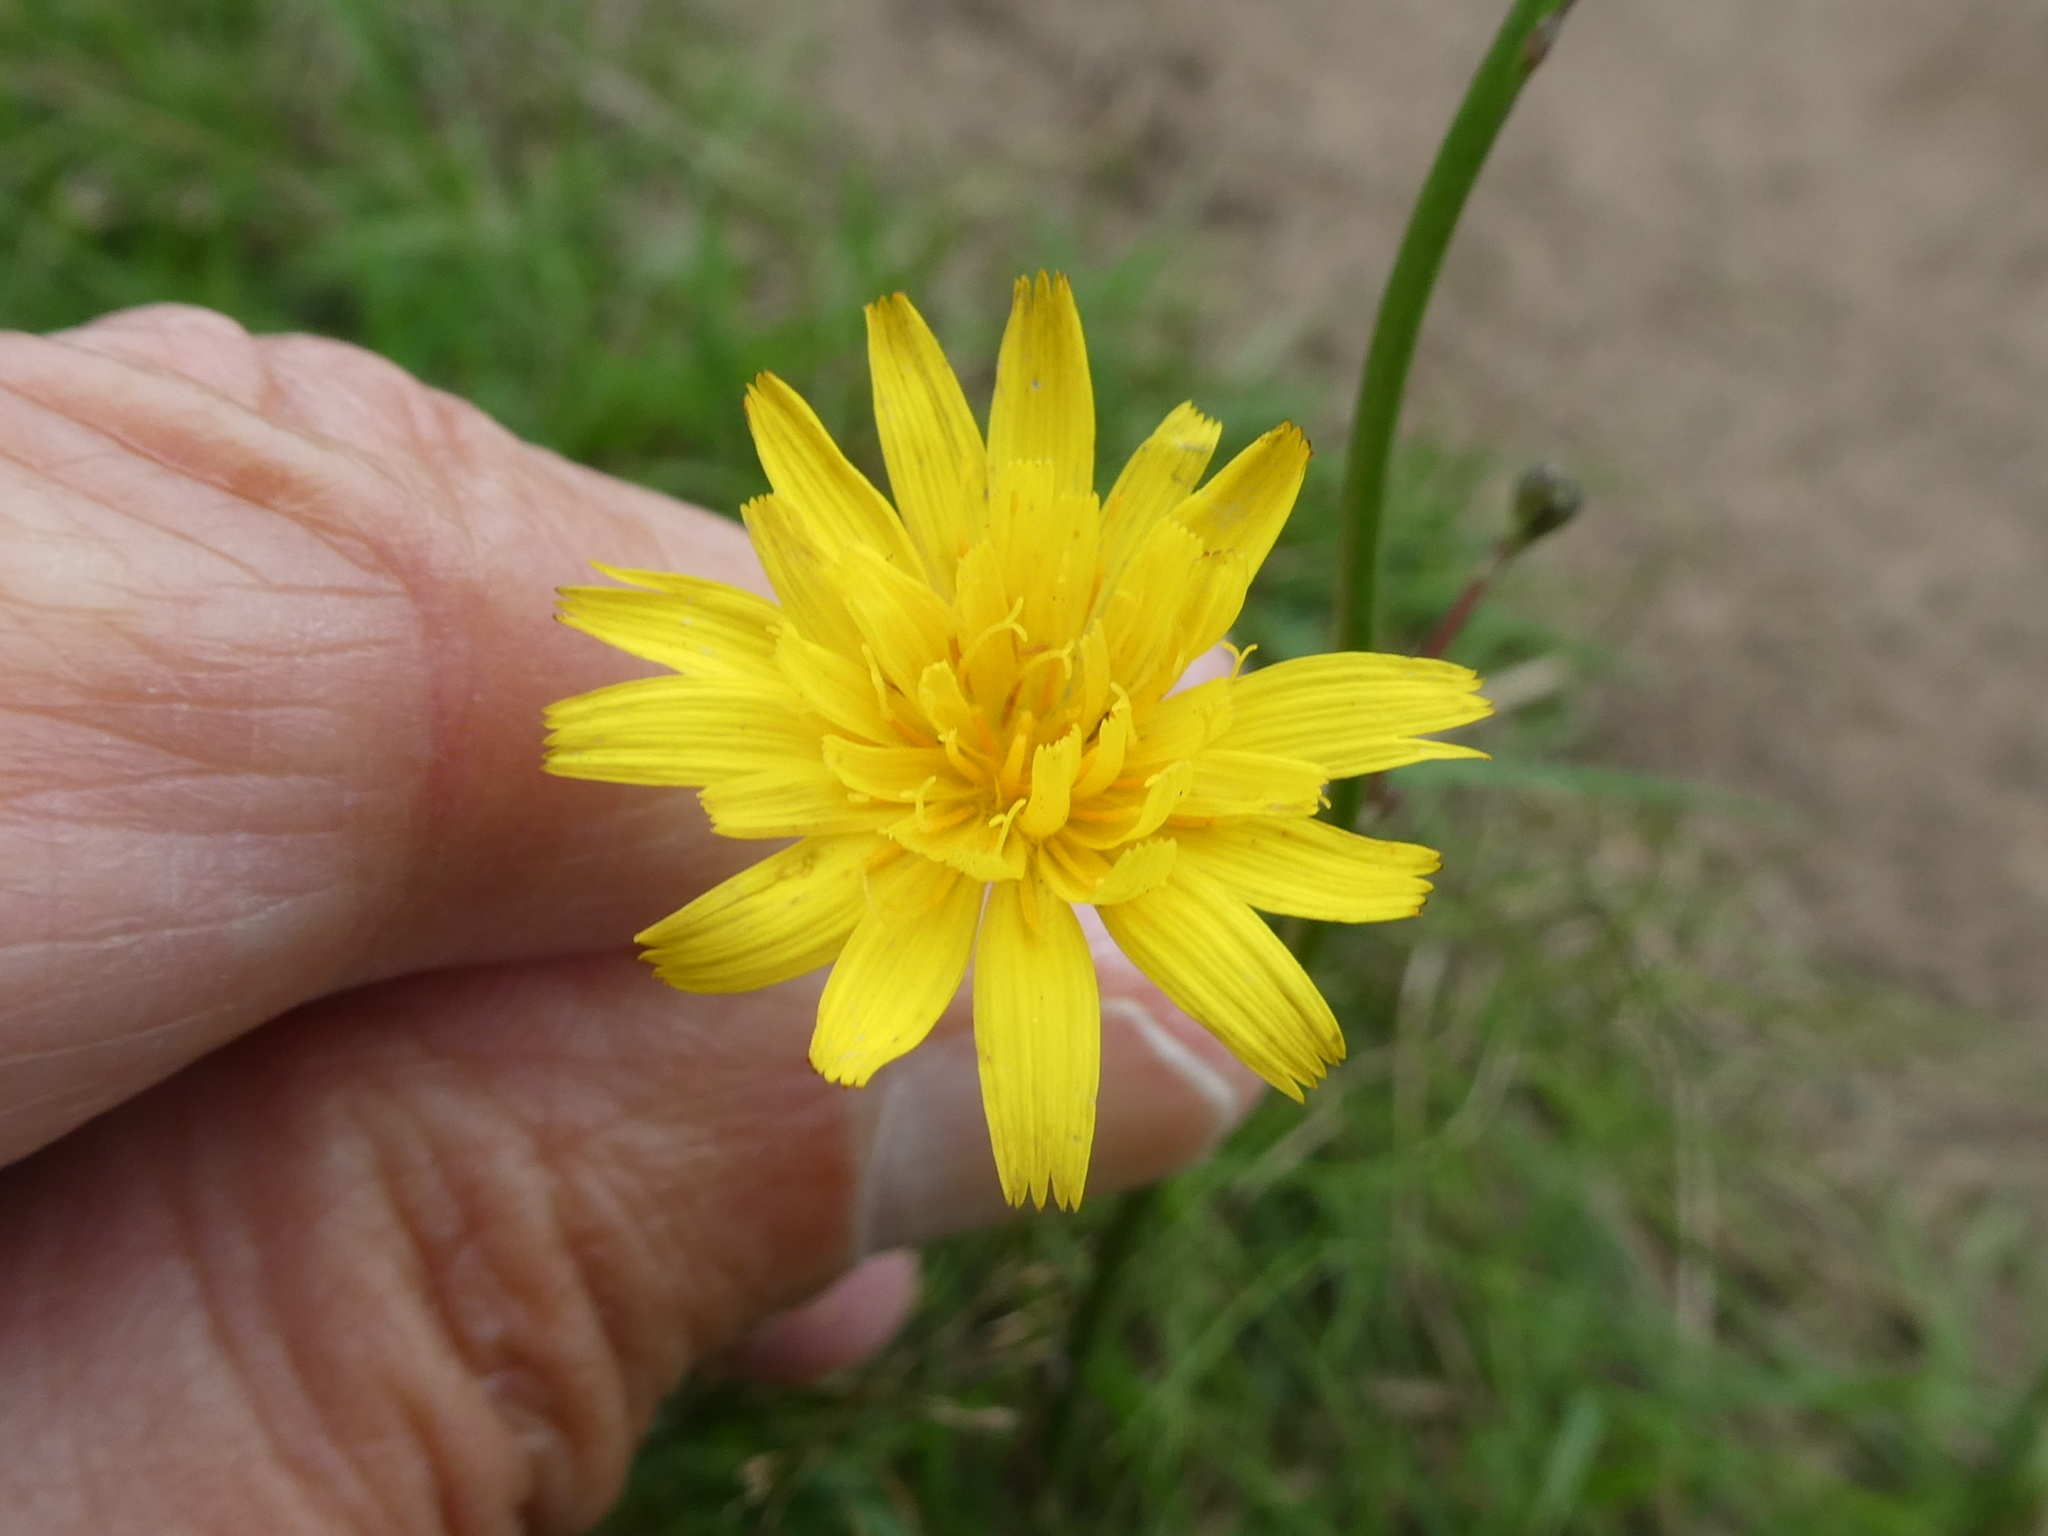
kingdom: Plantae
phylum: Tracheophyta
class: Magnoliopsida
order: Asterales
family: Asteraceae
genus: Hypochaeris
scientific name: Hypochaeris radicata
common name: Flatweed
